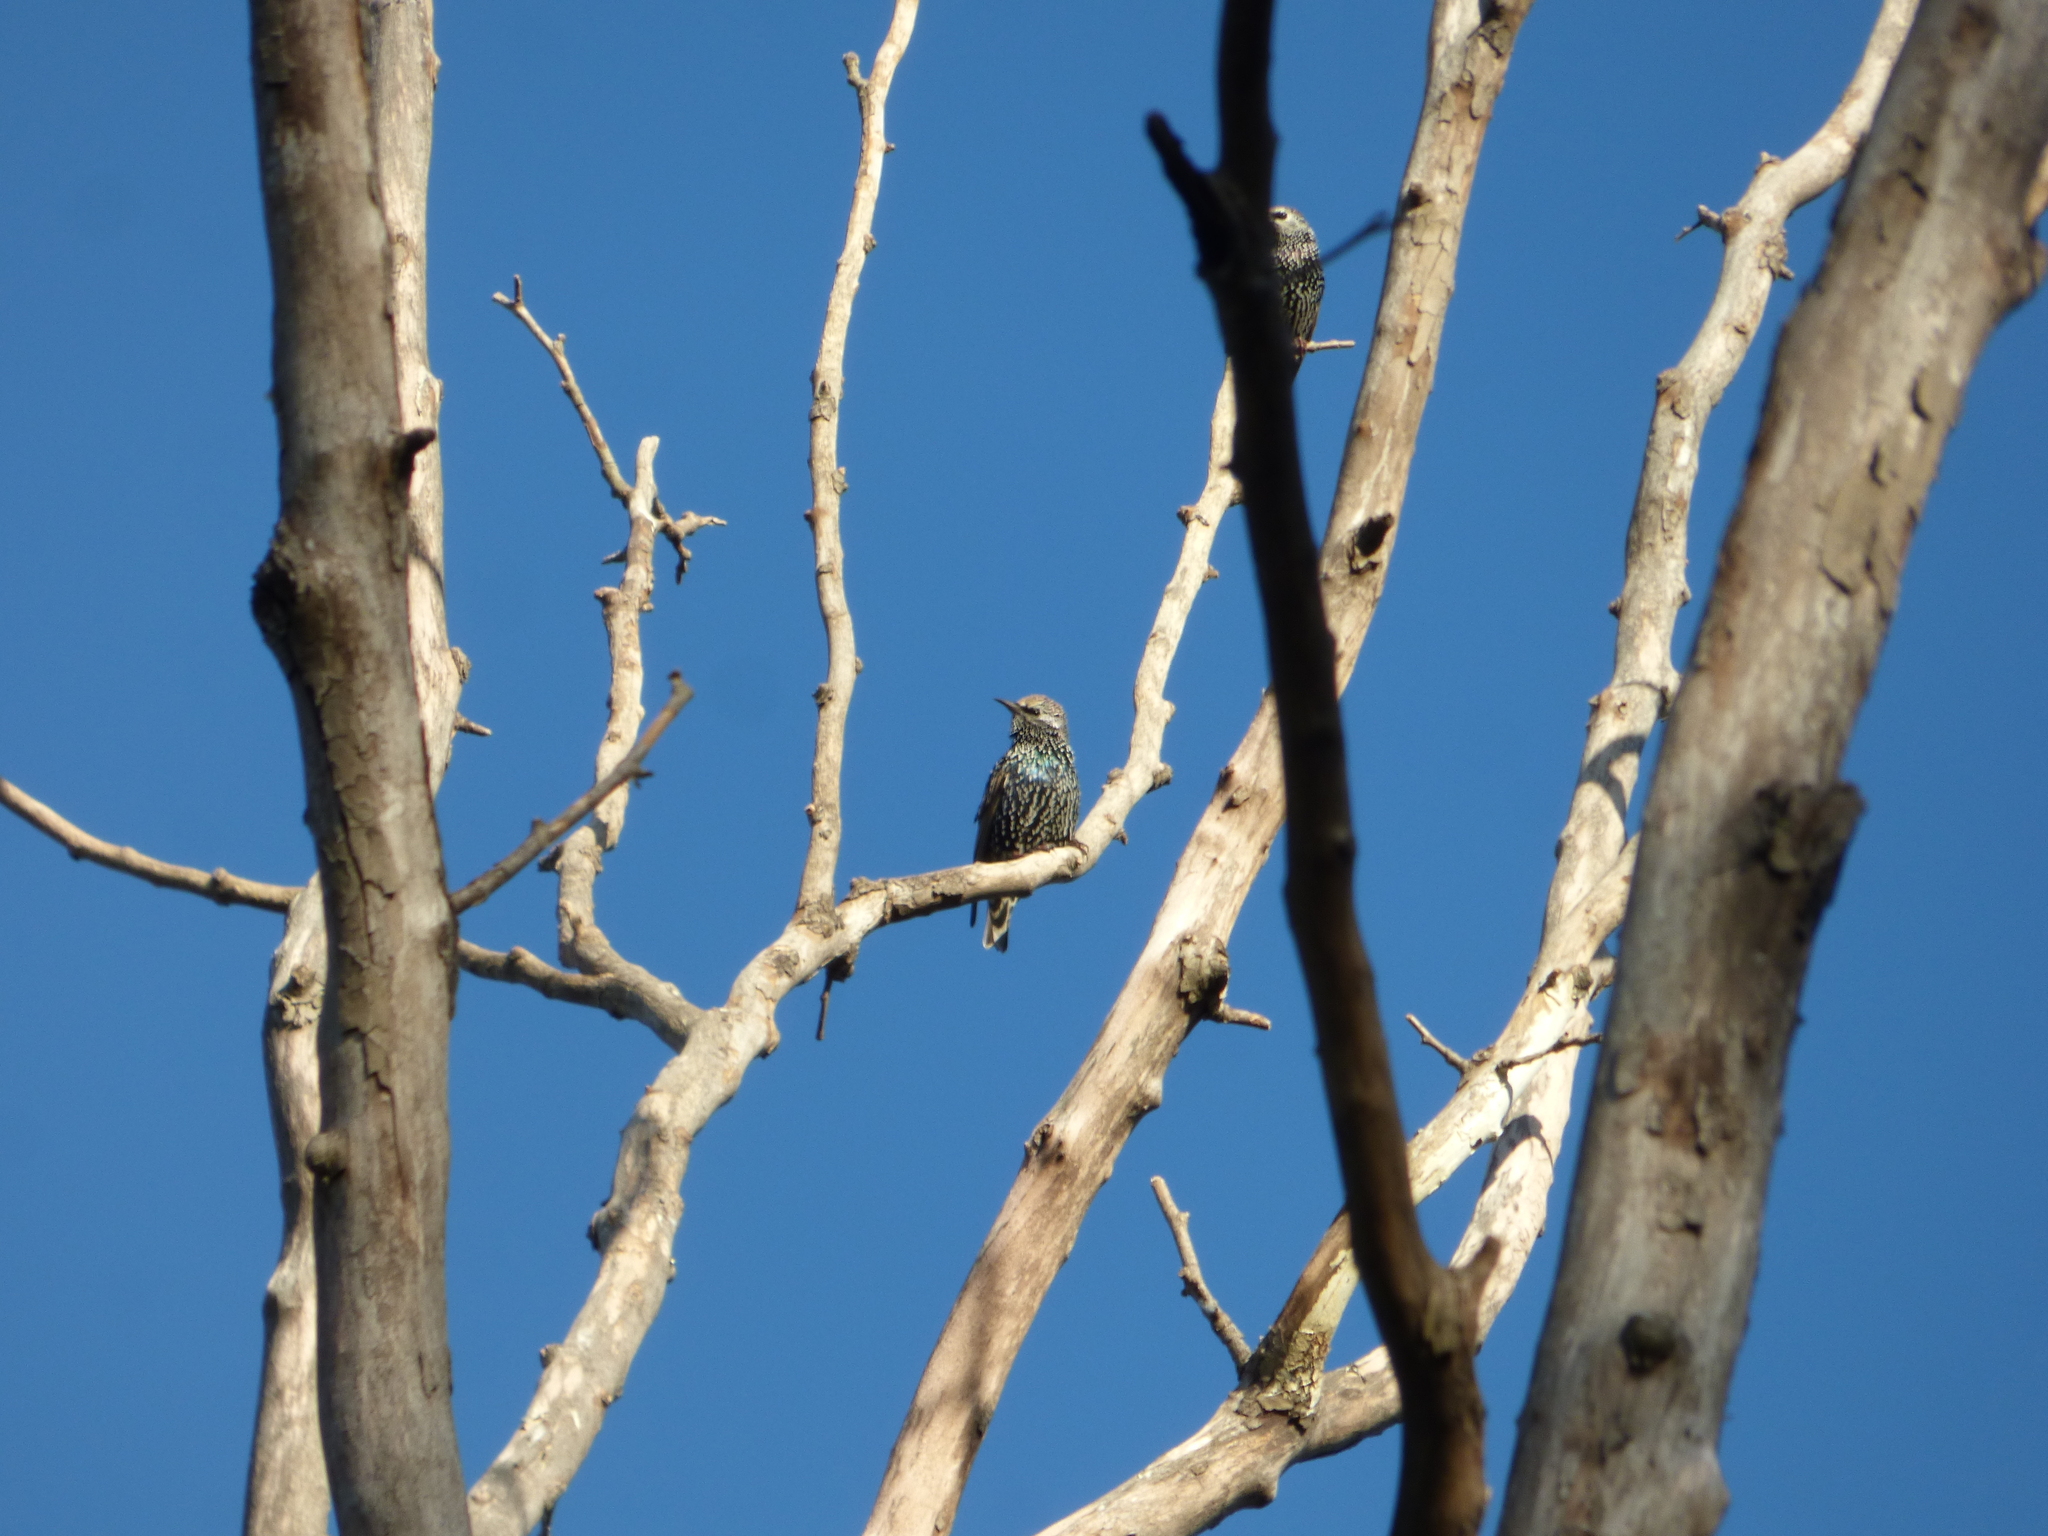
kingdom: Animalia
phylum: Chordata
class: Aves
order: Passeriformes
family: Sturnidae
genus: Sturnus
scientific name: Sturnus vulgaris
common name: Common starling
